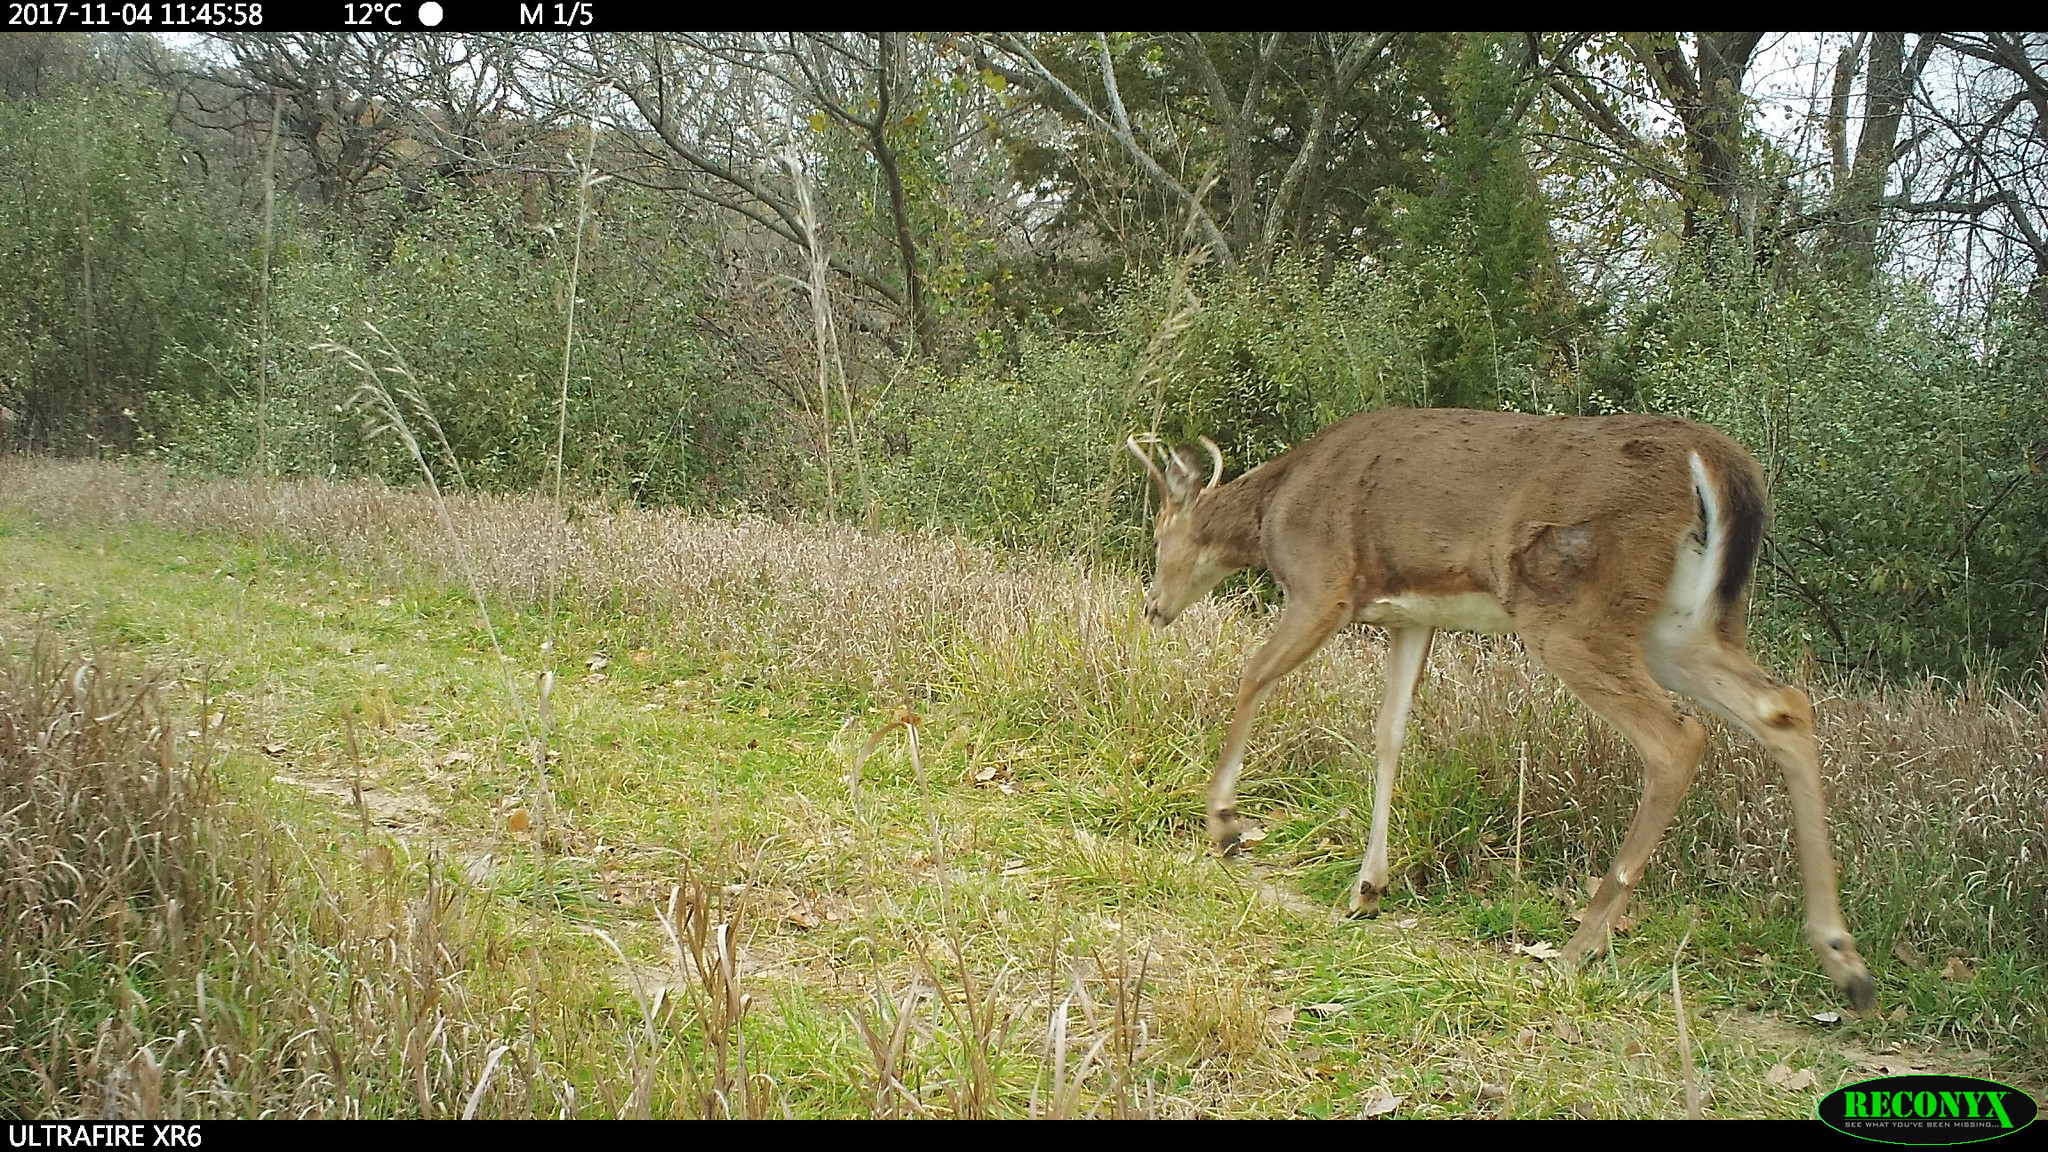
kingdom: Animalia
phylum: Chordata
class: Mammalia
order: Artiodactyla
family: Cervidae
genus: Odocoileus
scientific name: Odocoileus virginianus
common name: White-tailed deer
